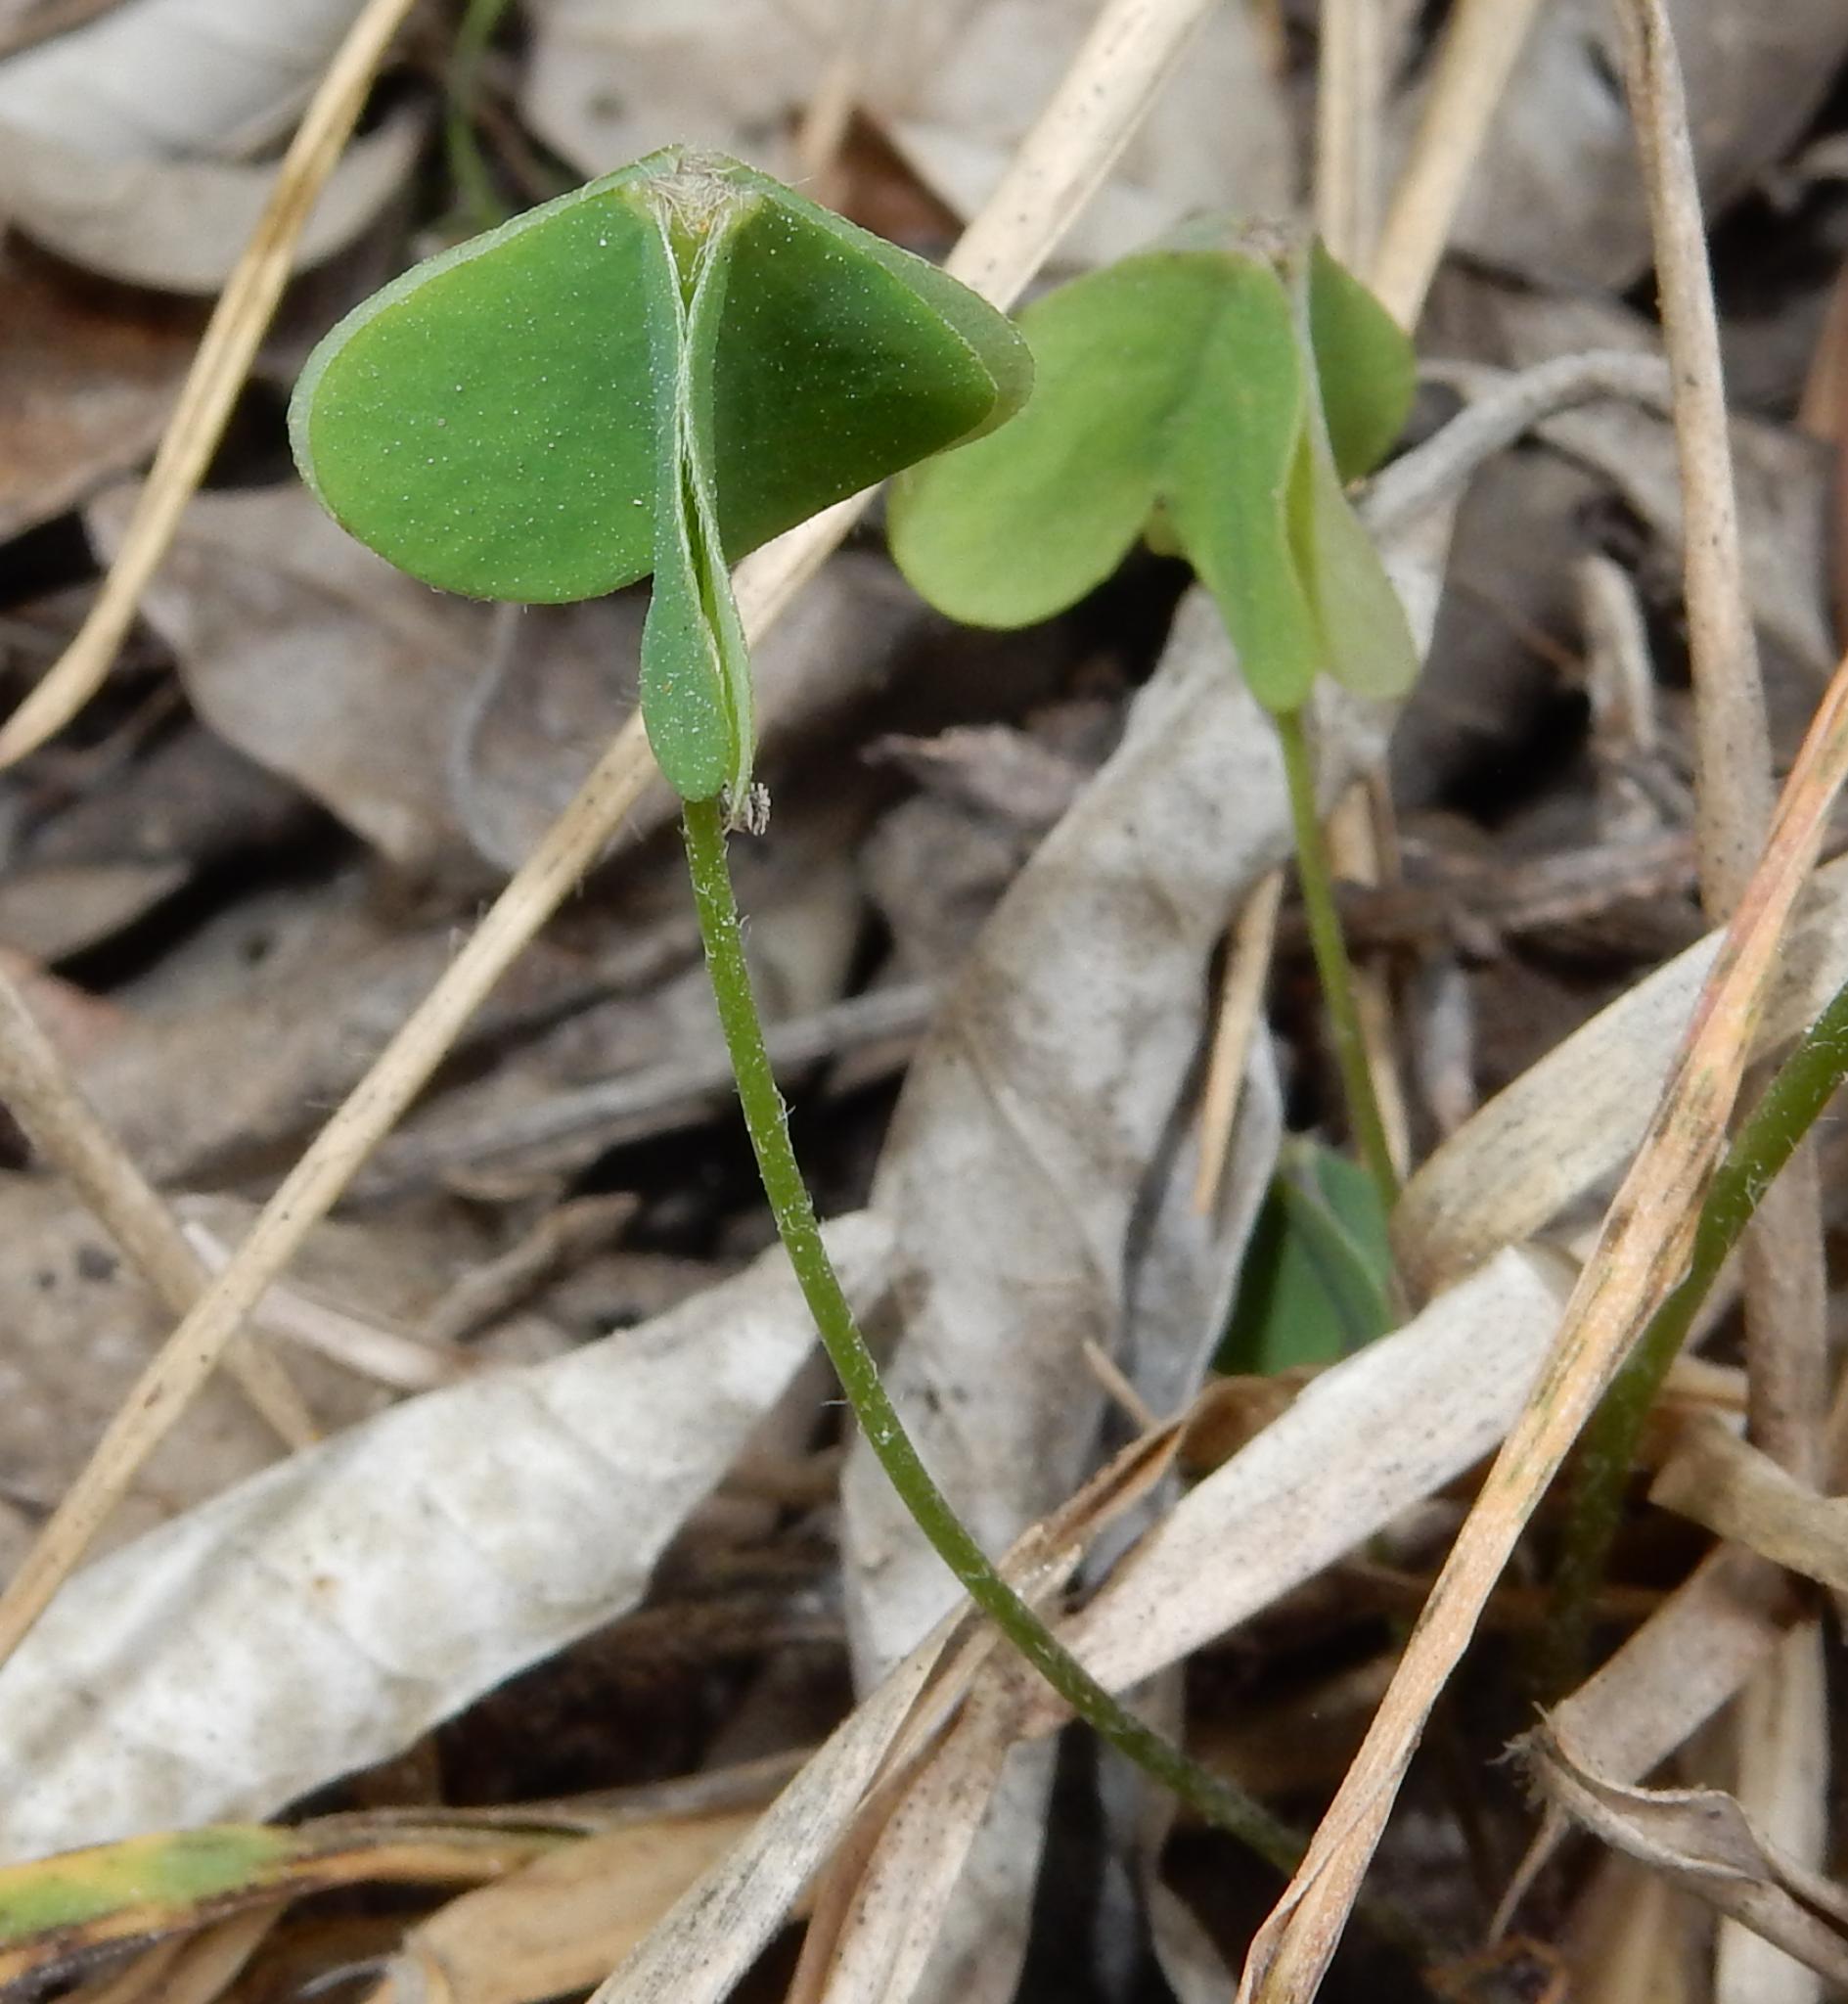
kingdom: Plantae
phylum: Tracheophyta
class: Magnoliopsida
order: Oxalidales
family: Oxalidaceae
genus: Oxalis
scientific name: Oxalis
